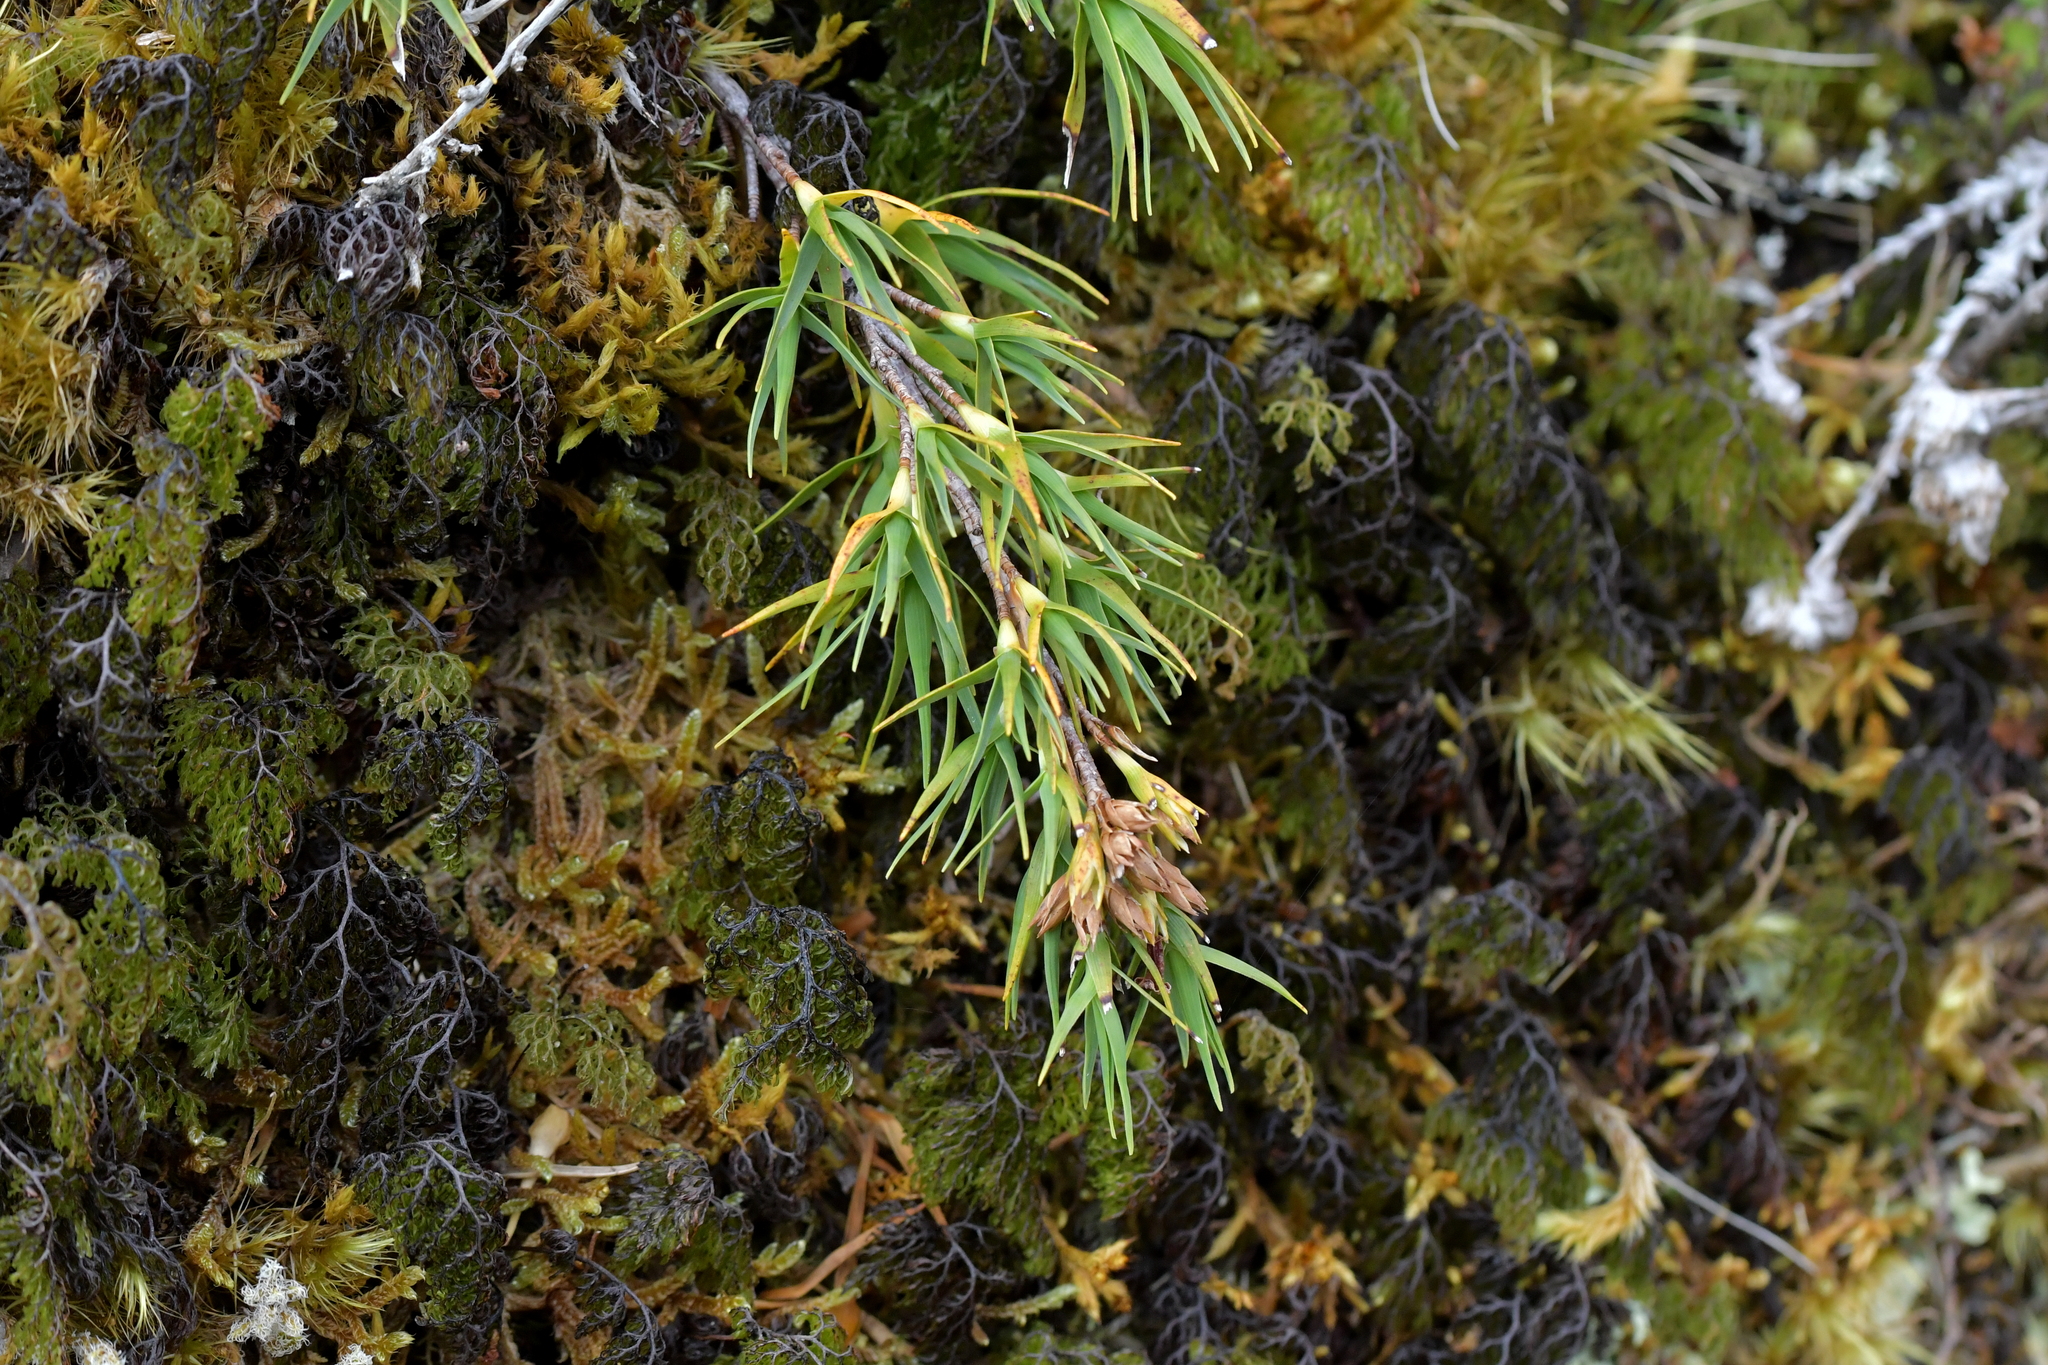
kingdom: Plantae
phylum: Tracheophyta
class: Magnoliopsida
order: Ericales
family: Ericaceae
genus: Dracophyllum
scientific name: Dracophyllum kirkii
